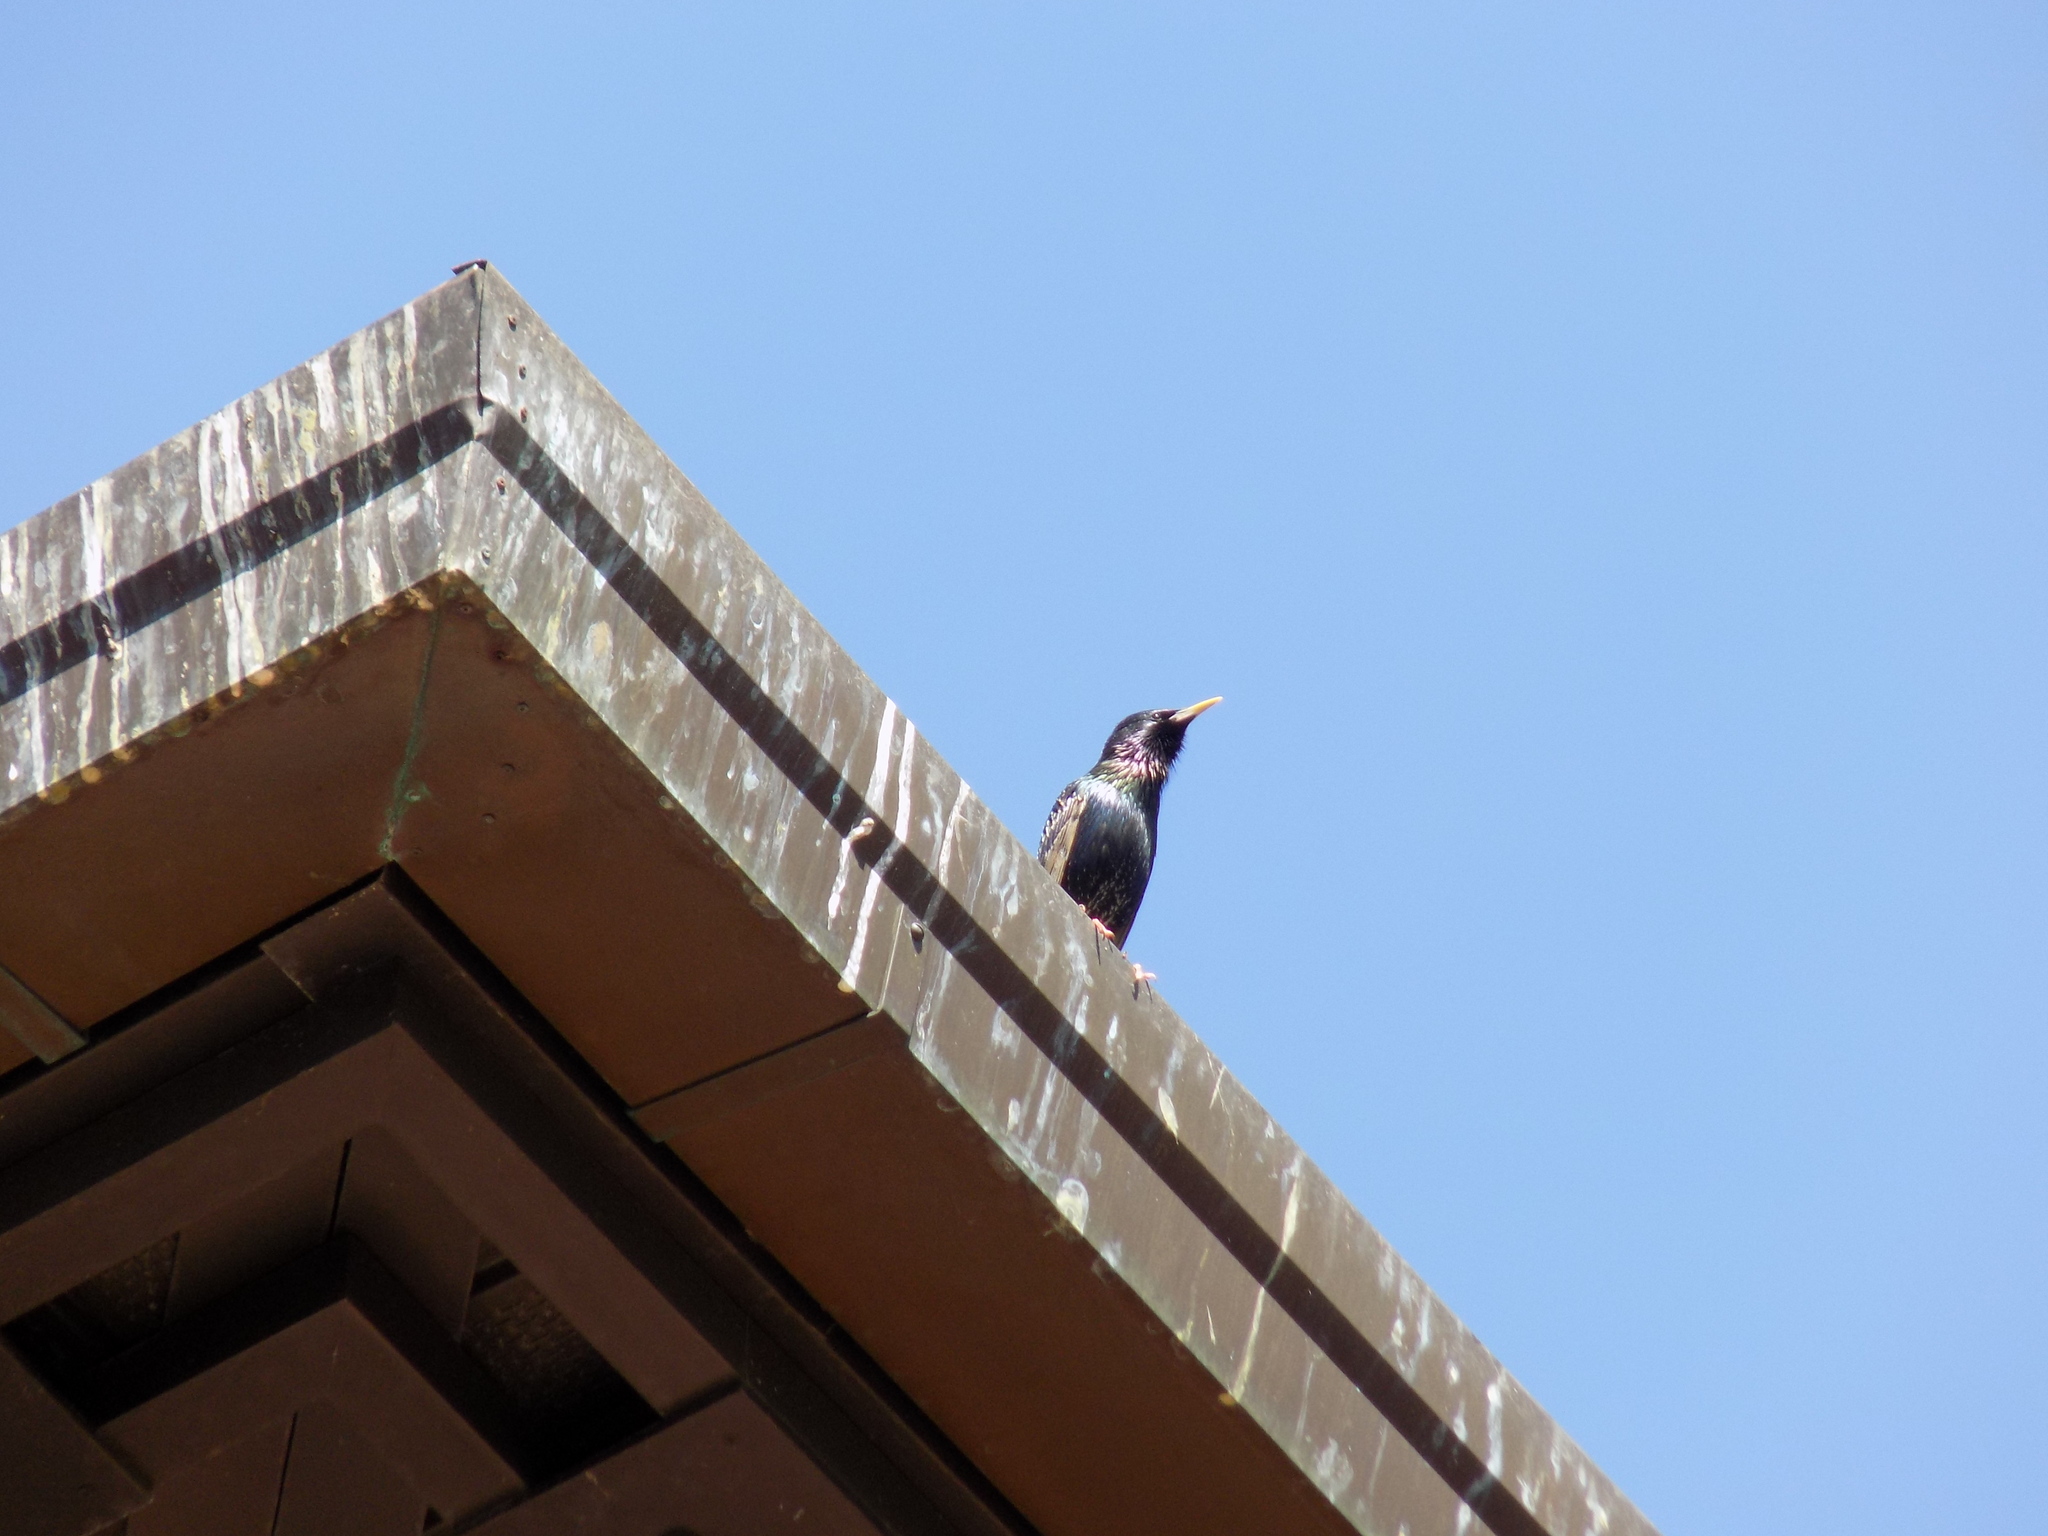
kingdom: Animalia
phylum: Chordata
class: Aves
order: Passeriformes
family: Sturnidae
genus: Sturnus
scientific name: Sturnus vulgaris
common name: Common starling
